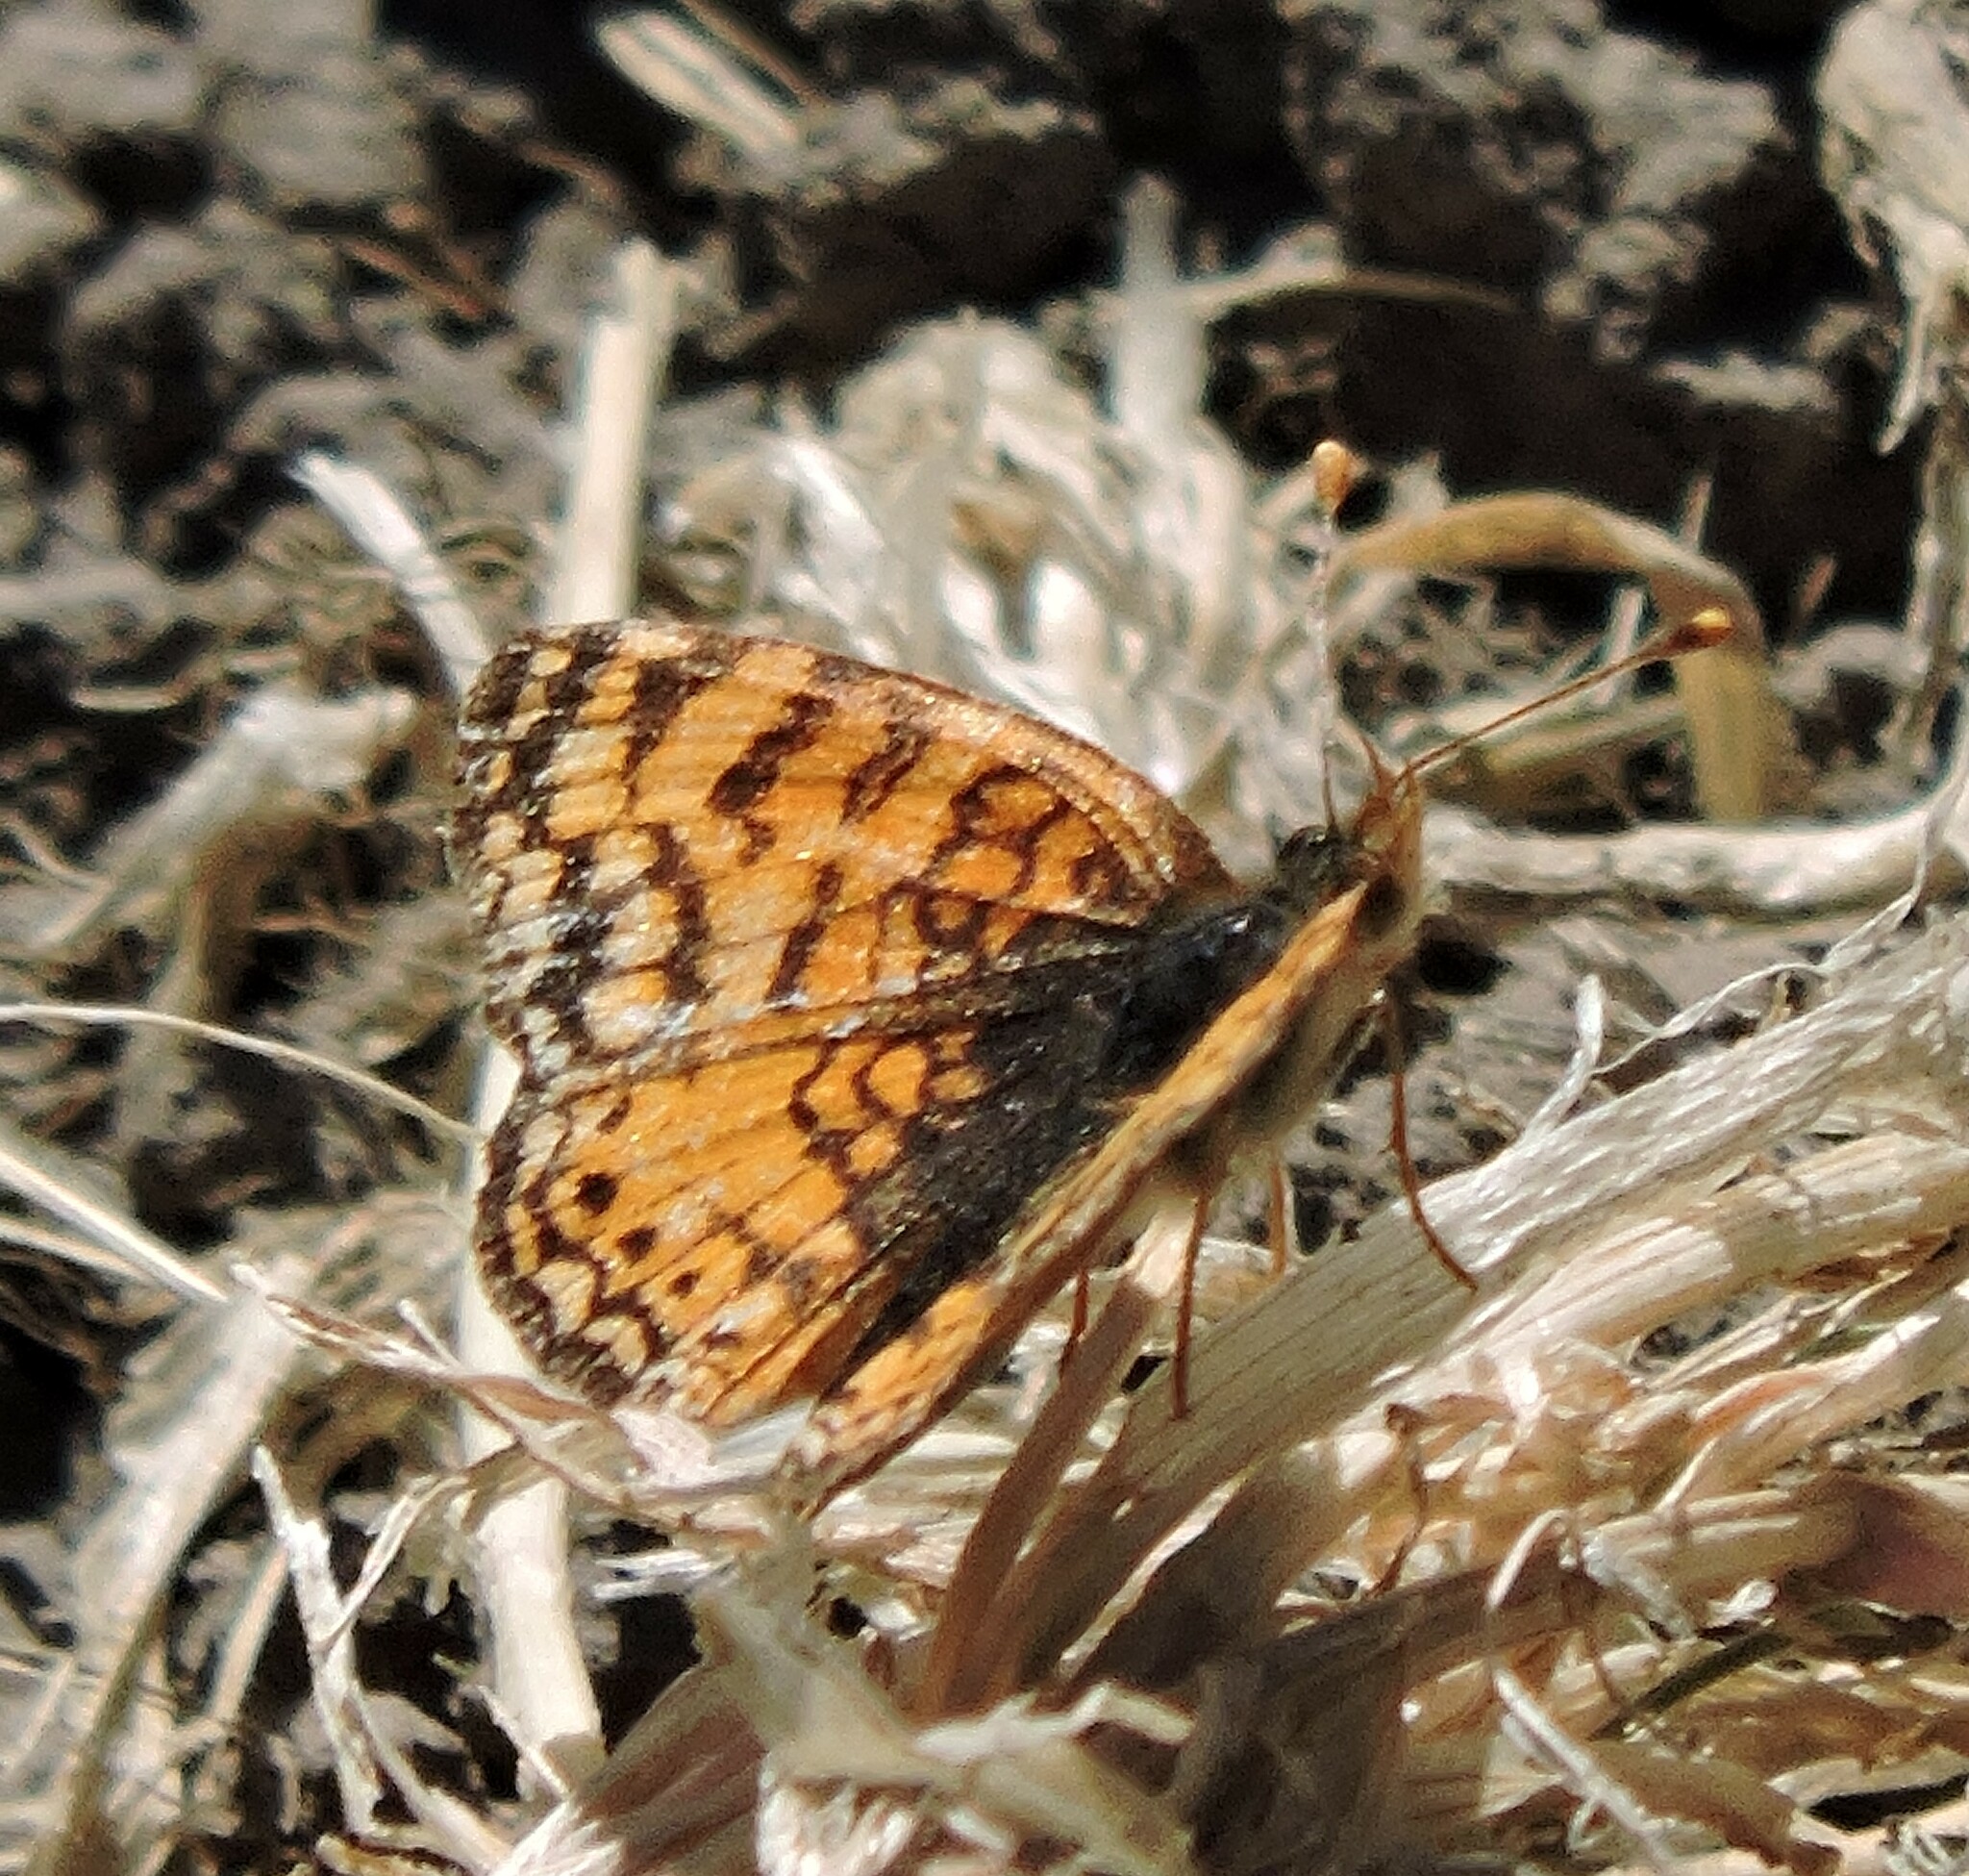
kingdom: Animalia
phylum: Arthropoda
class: Insecta
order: Lepidoptera
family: Nymphalidae
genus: Eresia
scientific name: Eresia aveyrona
